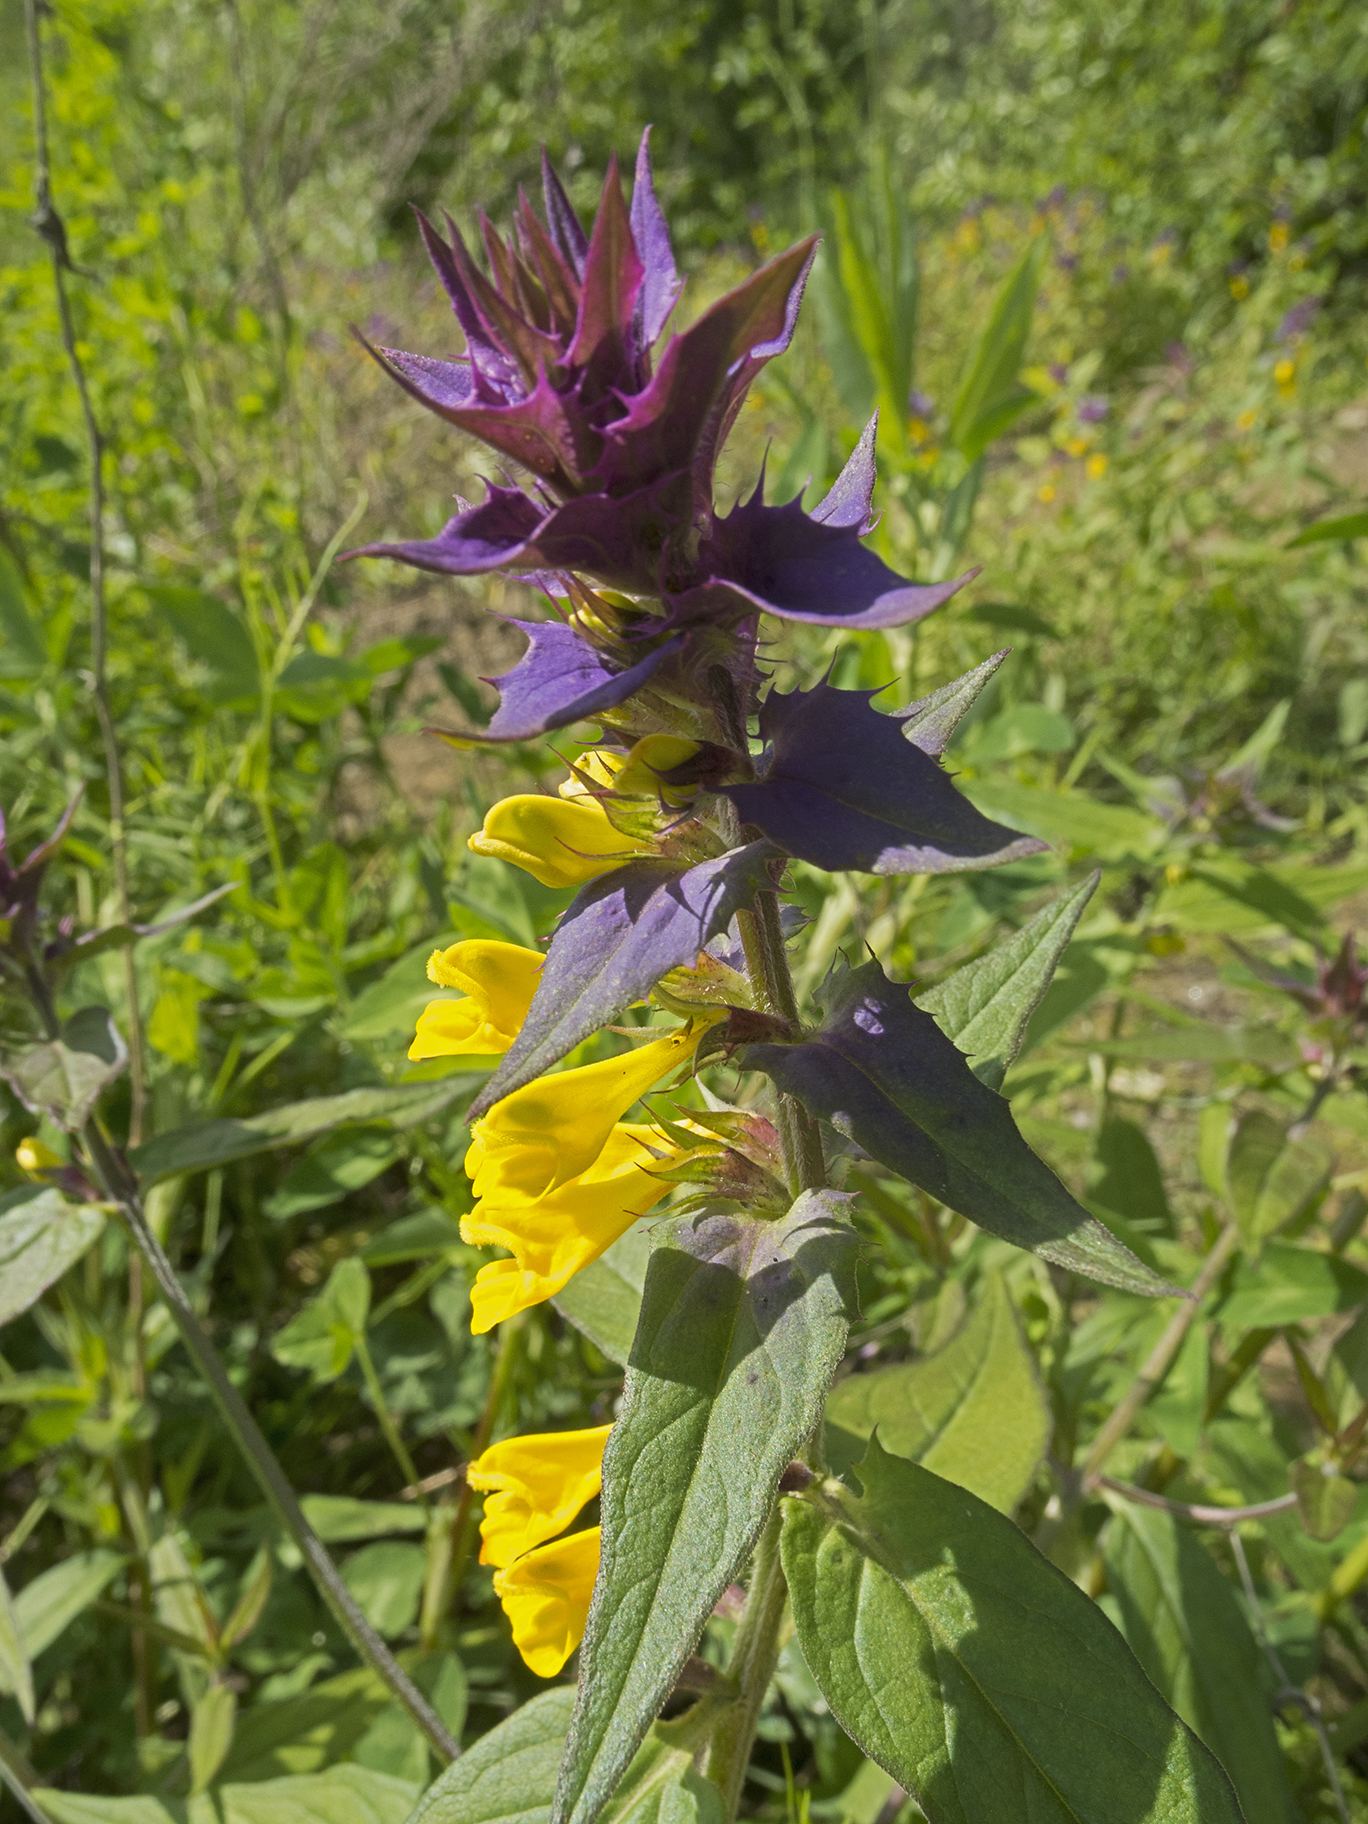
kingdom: Plantae
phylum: Tracheophyta
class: Magnoliopsida
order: Lamiales
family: Orobanchaceae
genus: Melampyrum
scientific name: Melampyrum nemorosum
